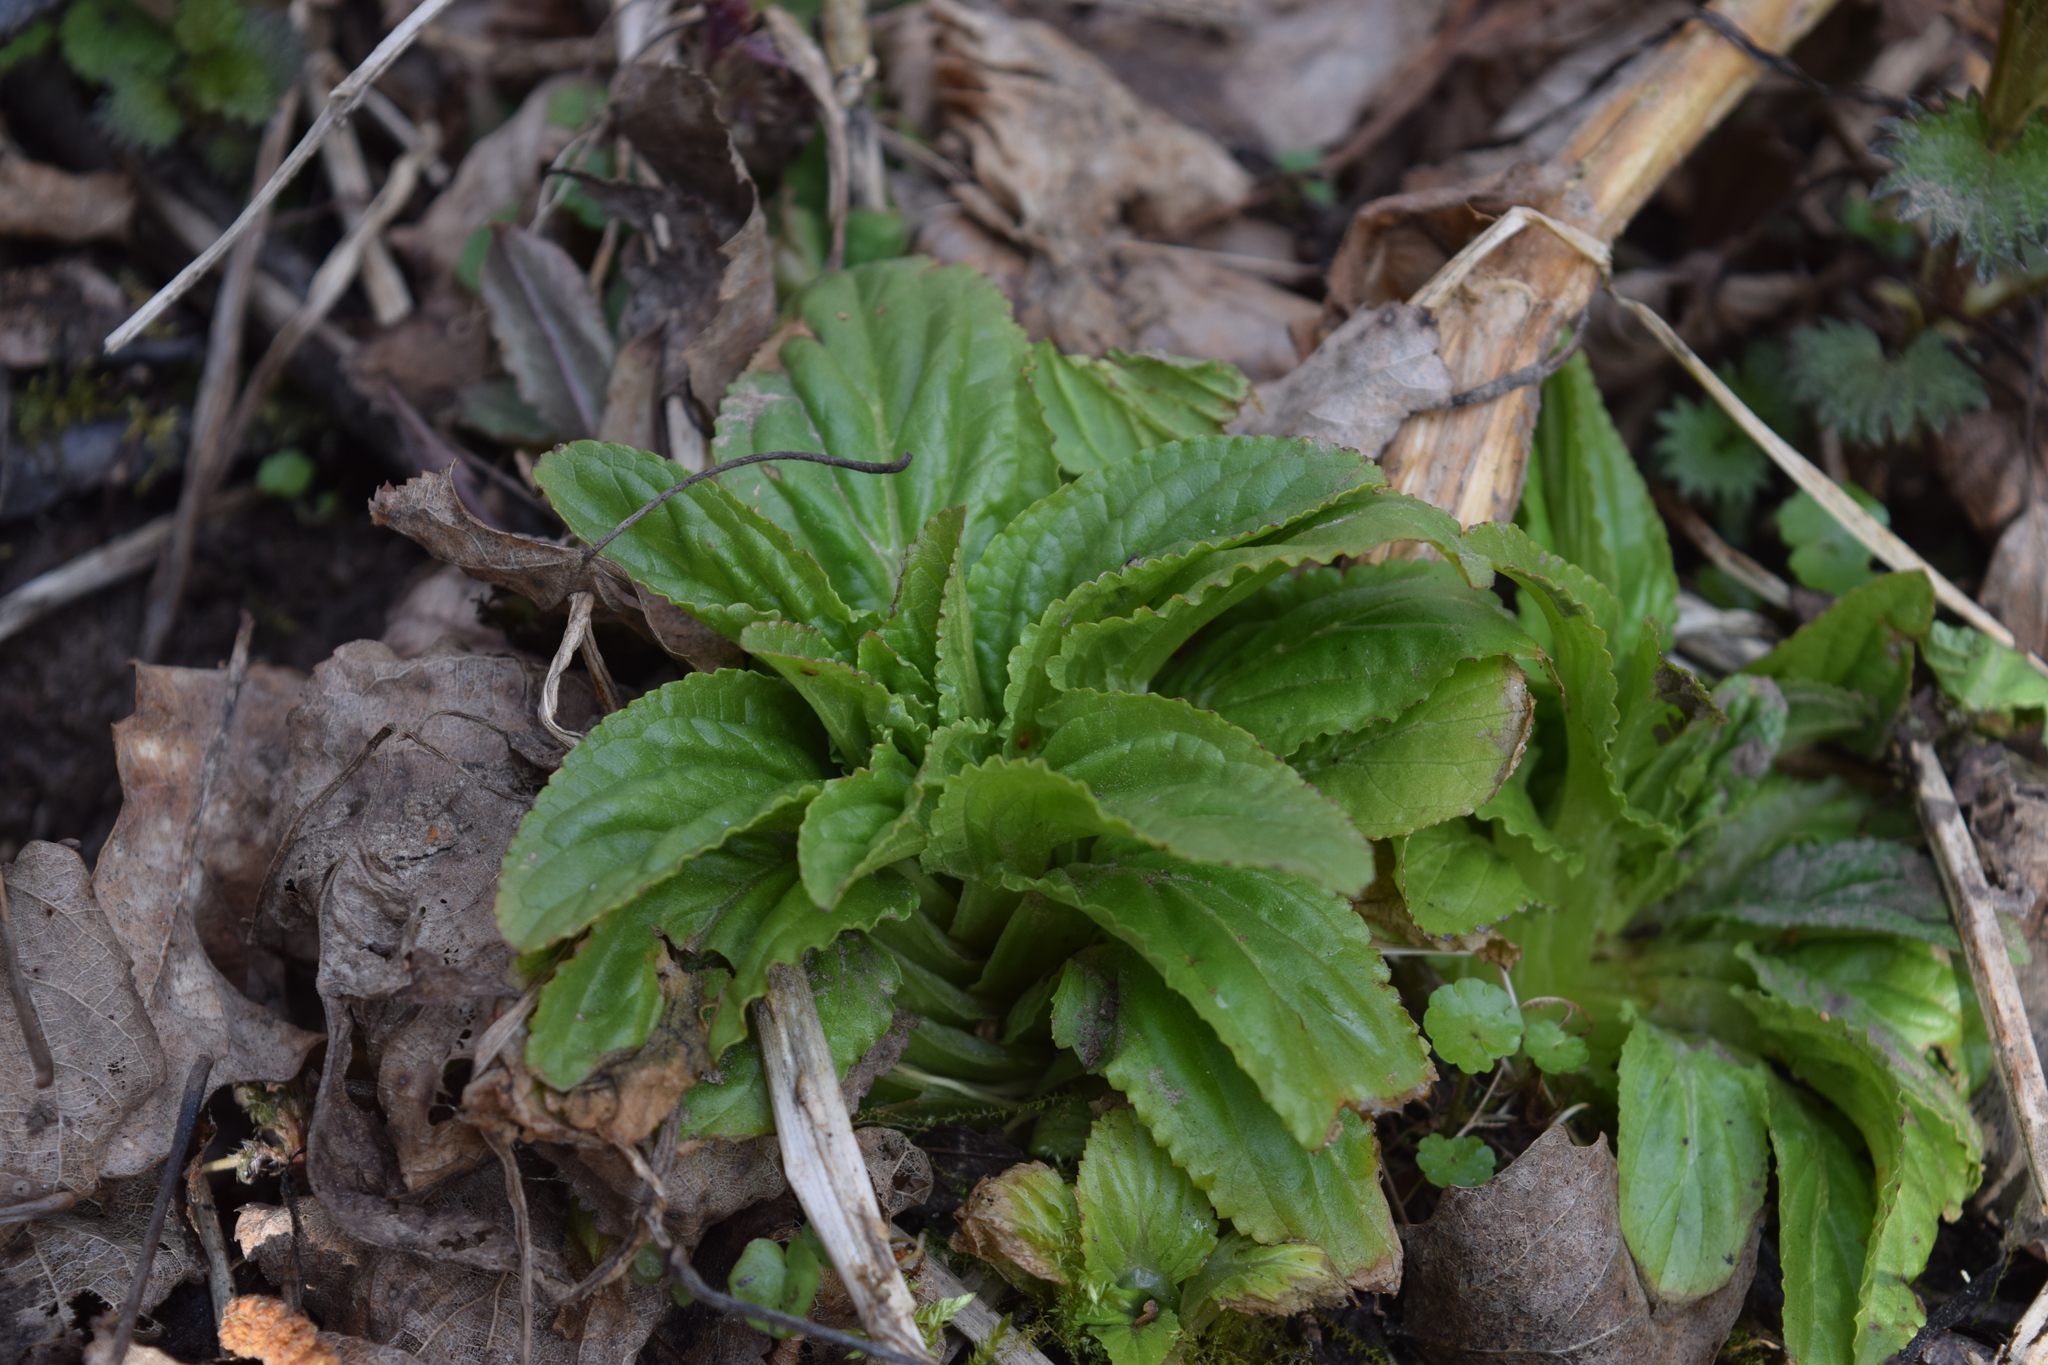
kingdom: Plantae
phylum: Tracheophyta
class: Magnoliopsida
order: Lamiales
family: Plantaginaceae
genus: Veronica
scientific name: Veronica beccabunga
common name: Brooklime
